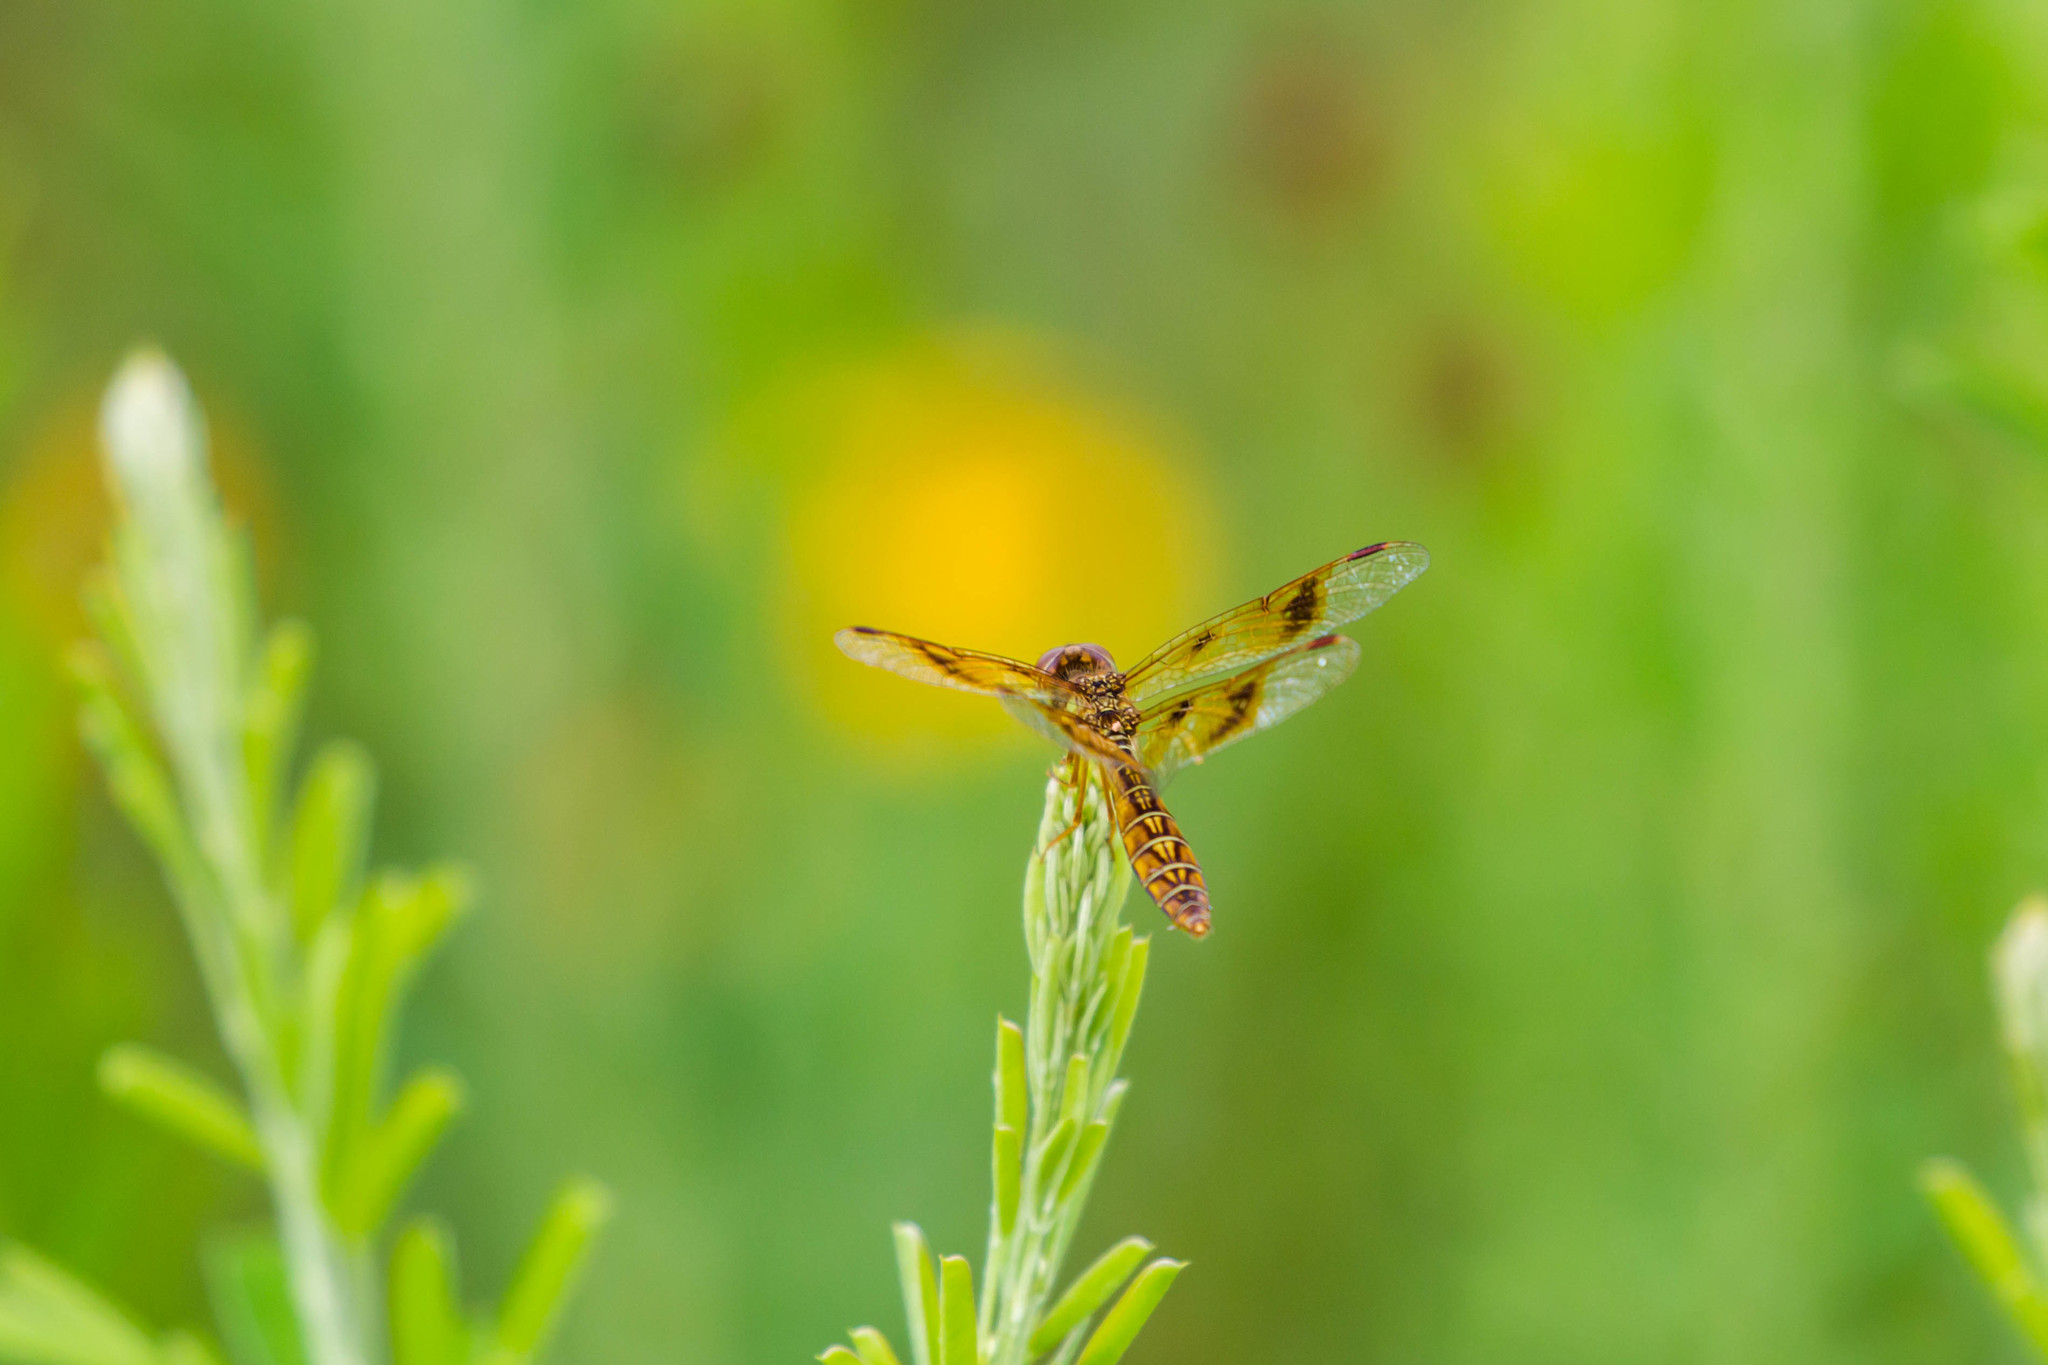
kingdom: Animalia
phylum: Arthropoda
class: Insecta
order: Odonata
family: Libellulidae
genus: Perithemis
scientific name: Perithemis tenera
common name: Eastern amberwing
